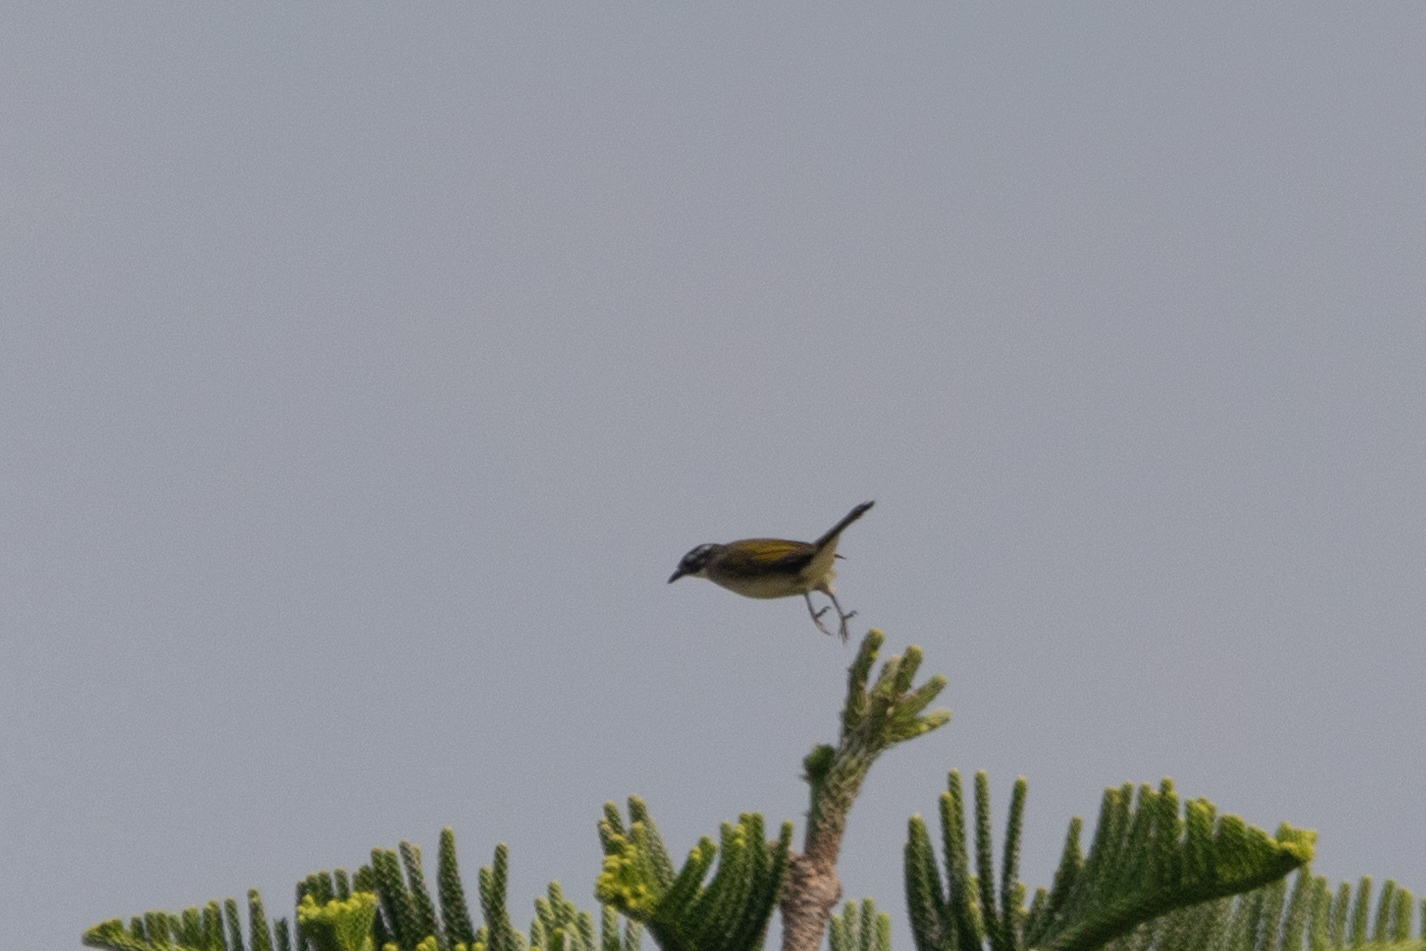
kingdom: Animalia
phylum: Chordata
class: Aves
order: Passeriformes
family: Pycnonotidae
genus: Pycnonotus
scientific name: Pycnonotus sinensis
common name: Light-vented bulbul
